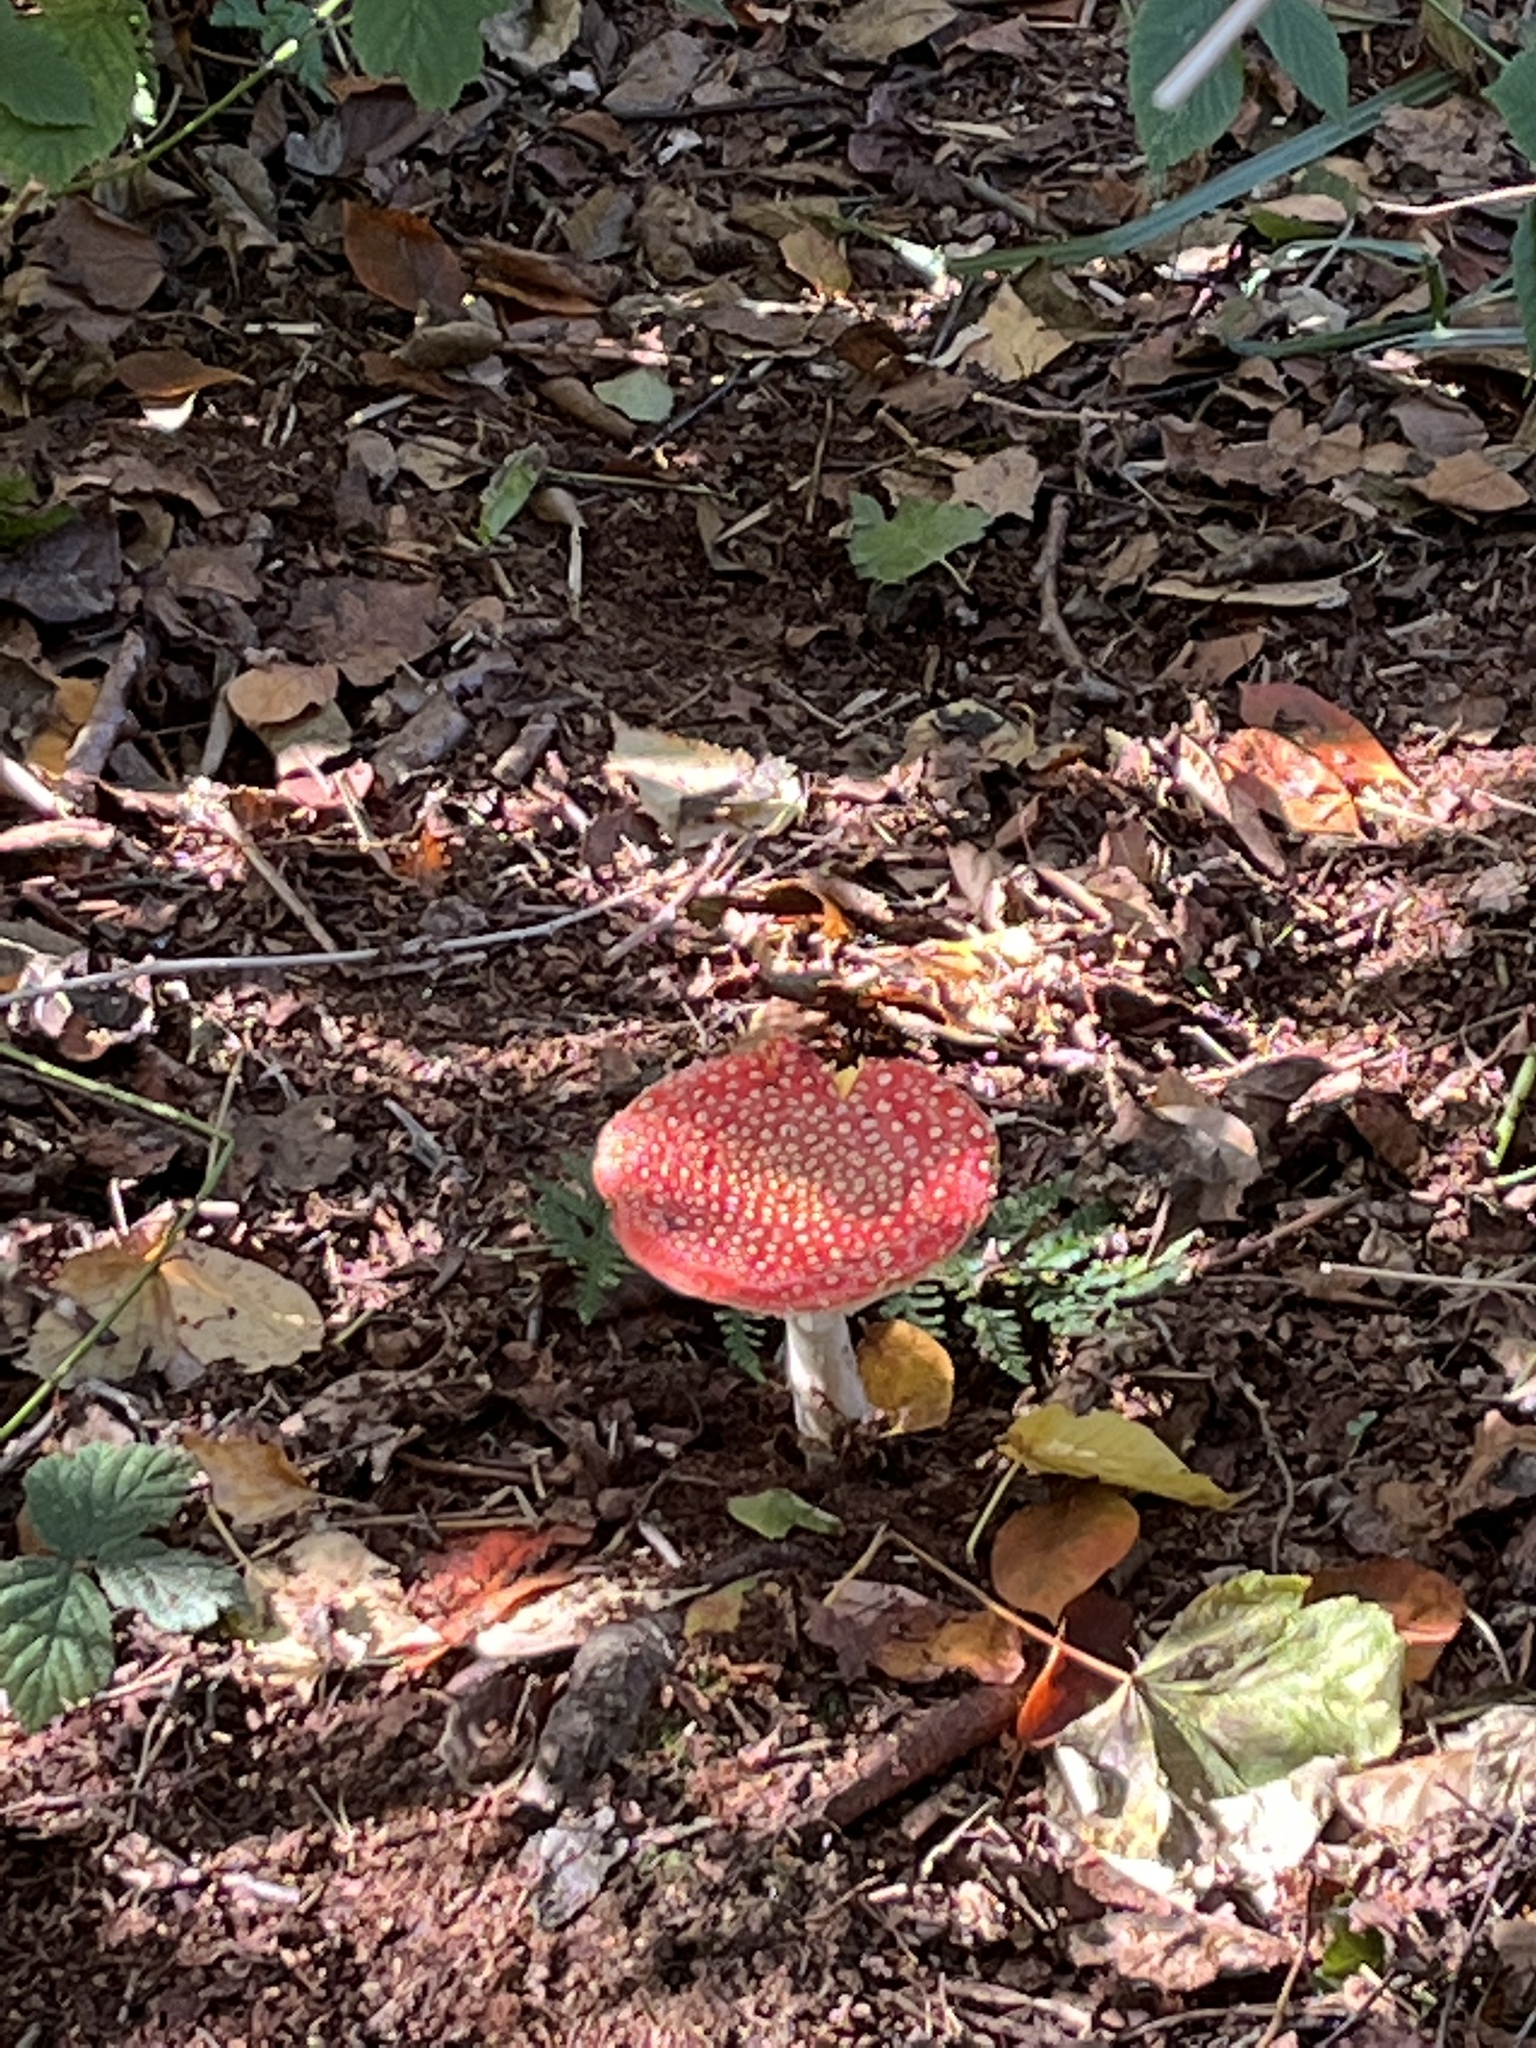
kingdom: Fungi
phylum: Basidiomycota
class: Agaricomycetes
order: Agaricales
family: Amanitaceae
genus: Amanita
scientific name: Amanita muscaria
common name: Fly agaric
